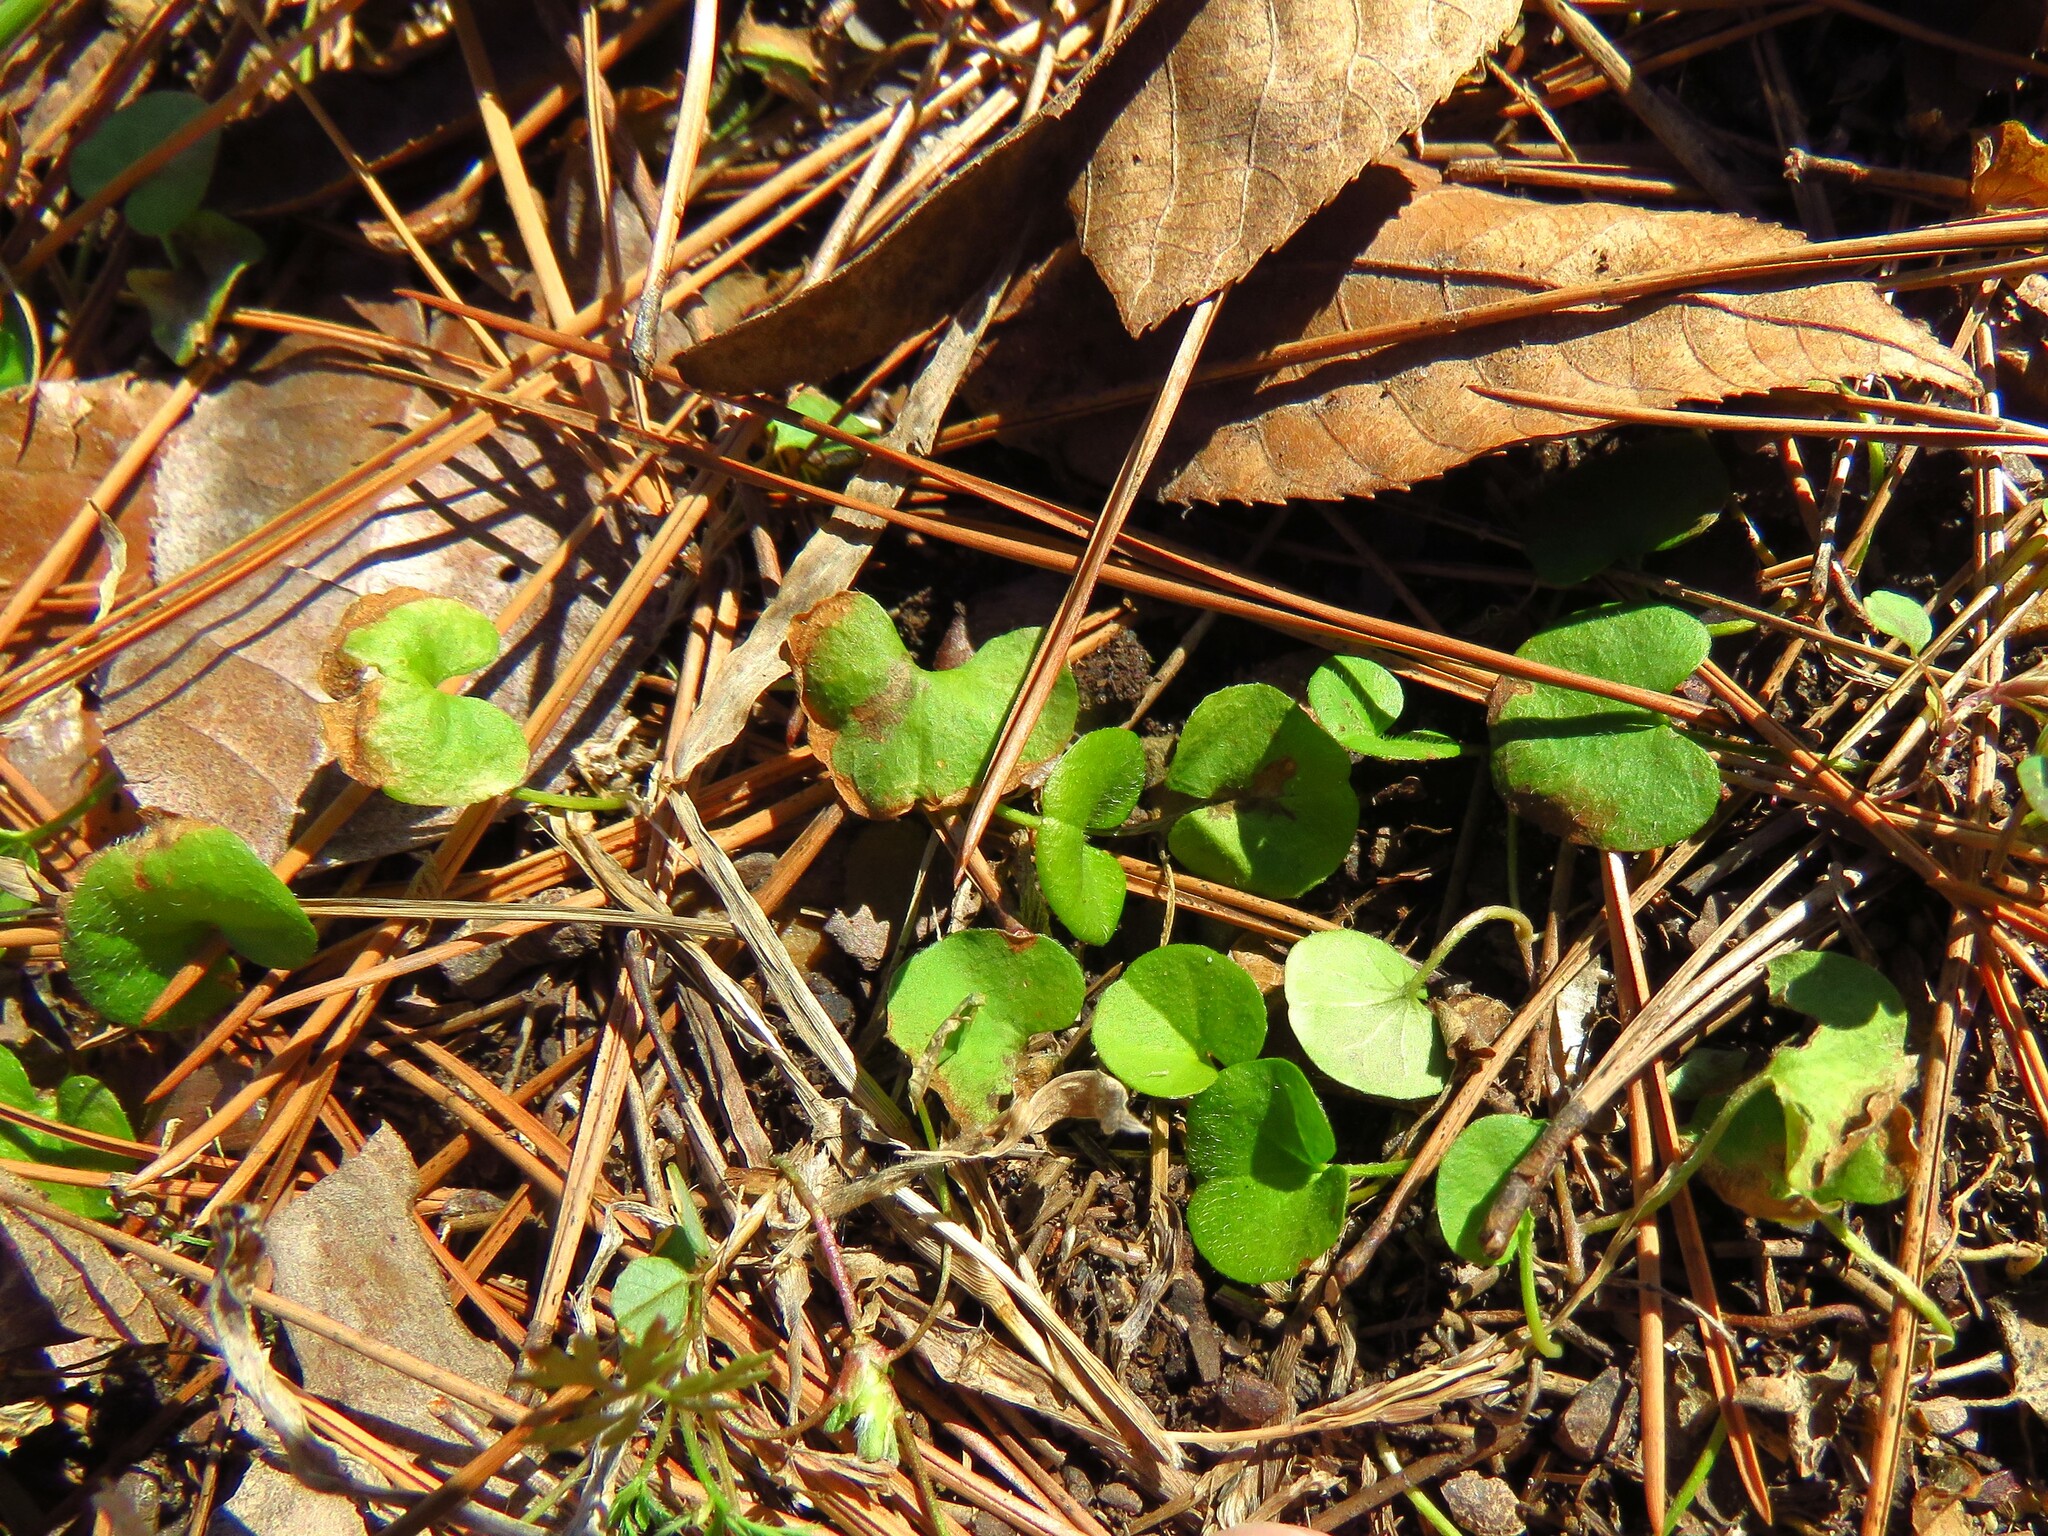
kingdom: Plantae
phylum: Tracheophyta
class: Magnoliopsida
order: Solanales
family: Convolvulaceae
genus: Dichondra
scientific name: Dichondra carolinensis
